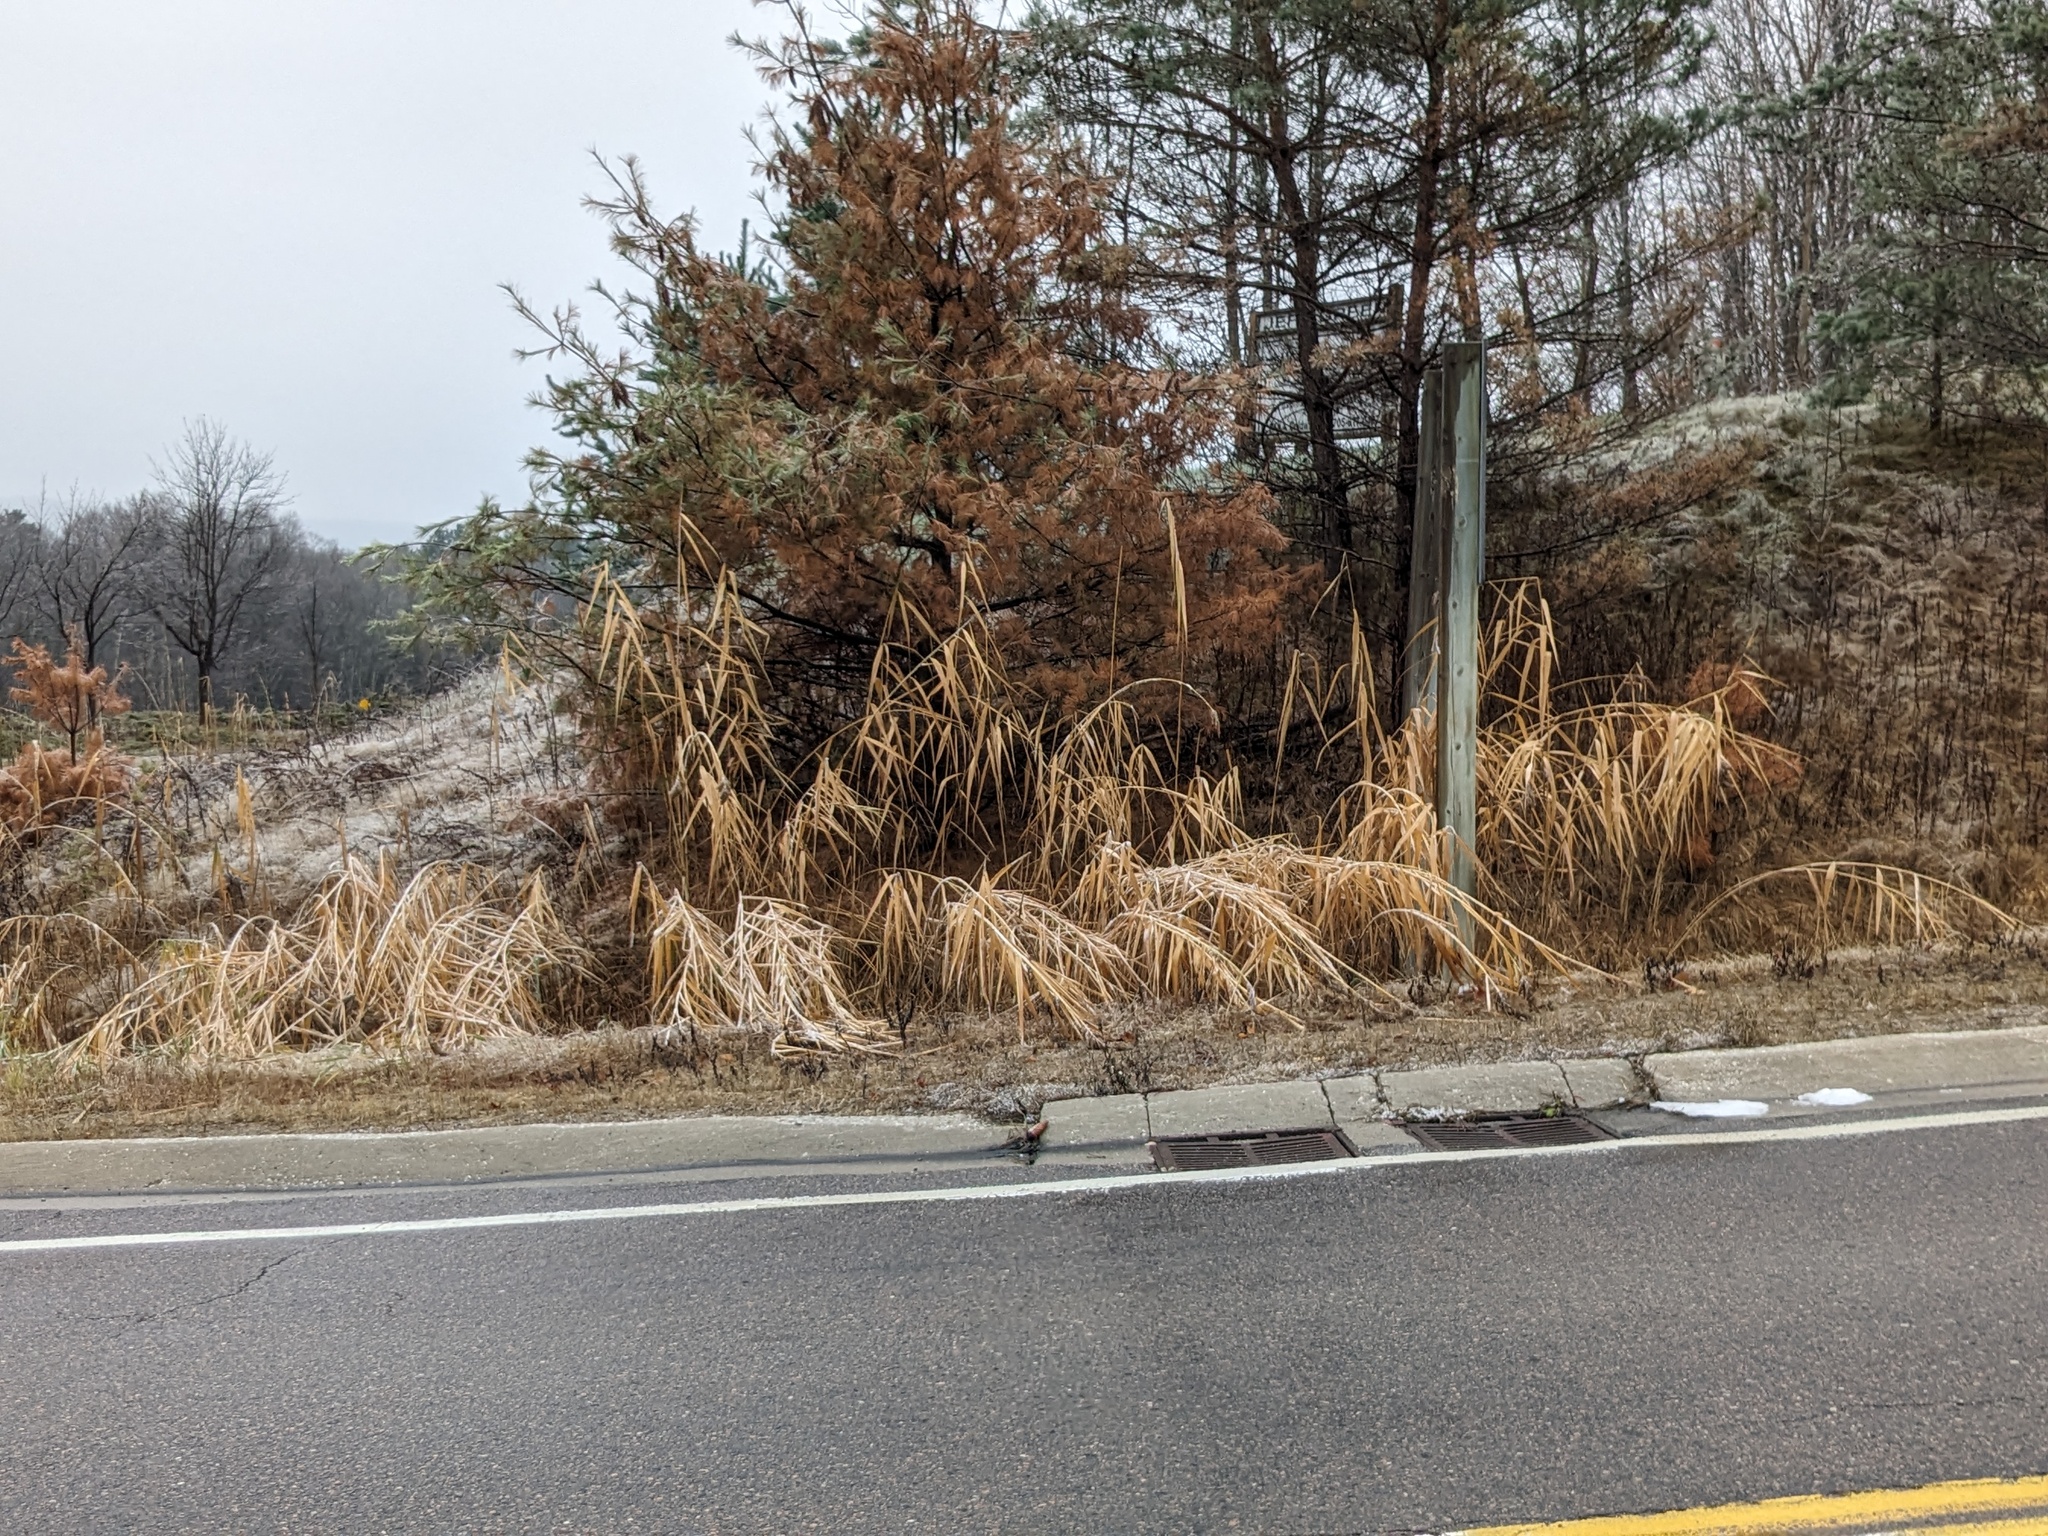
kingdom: Plantae
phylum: Tracheophyta
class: Liliopsida
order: Poales
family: Poaceae
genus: Phragmites
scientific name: Phragmites australis
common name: Common reed
